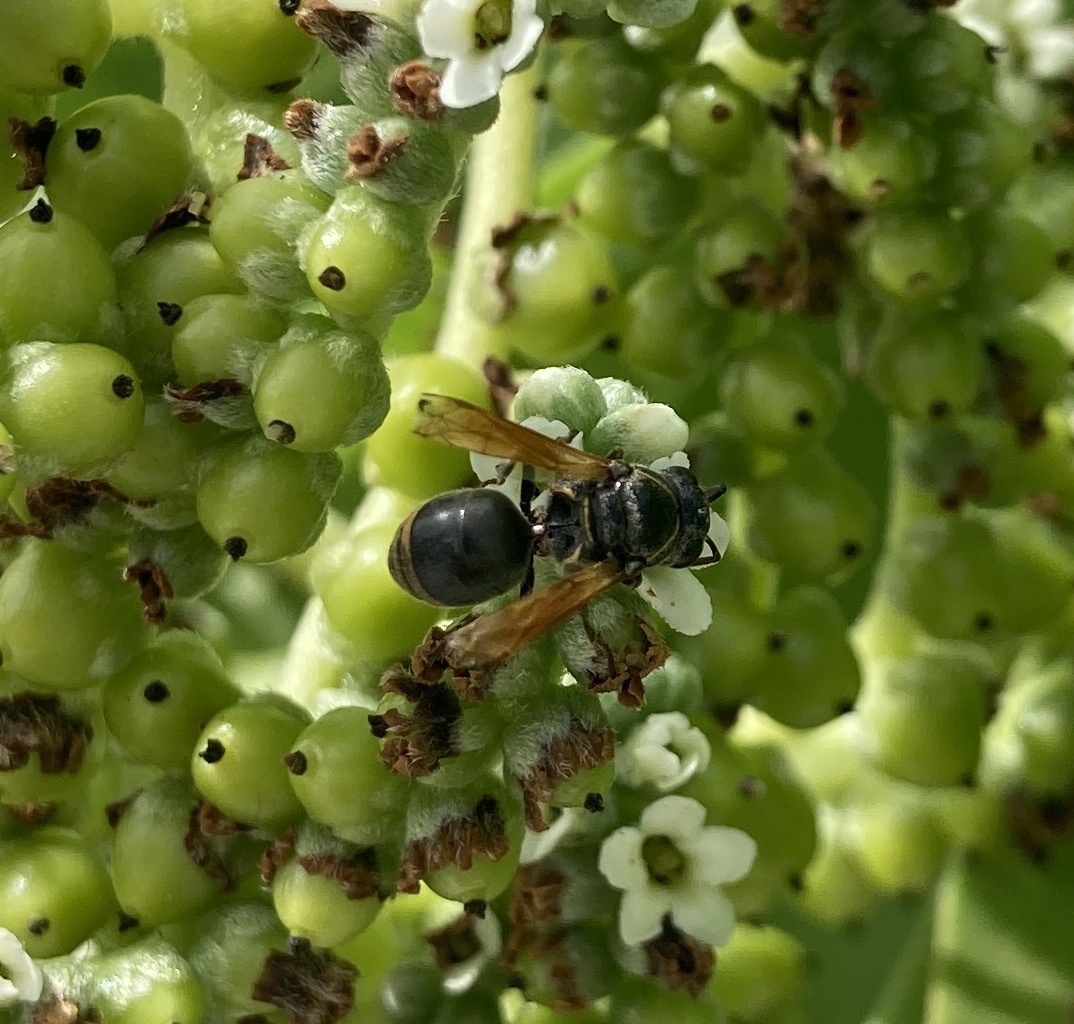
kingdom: Animalia
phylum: Arthropoda
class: Insecta
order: Hymenoptera
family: Eumenidae
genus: Pachodynerus
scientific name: Pachodynerus nasidens
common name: Key hole wasp
